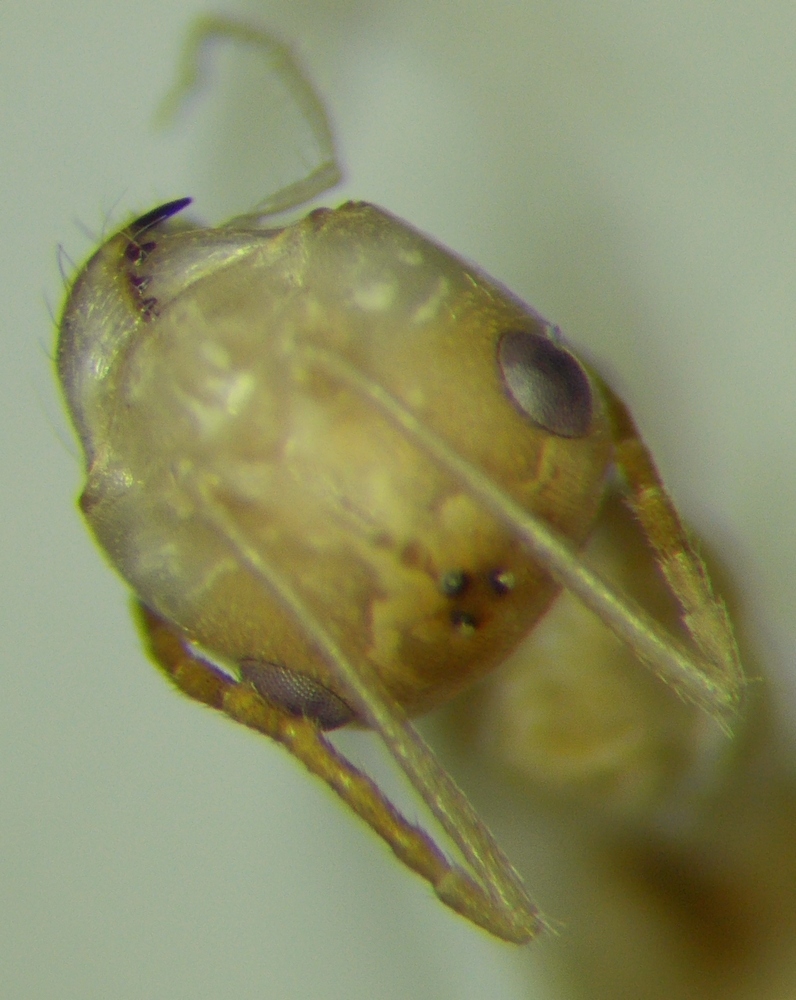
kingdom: Animalia
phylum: Arthropoda
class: Insecta
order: Hymenoptera
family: Formicidae
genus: Cataglyphis
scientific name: Cataglyphis pallidus
